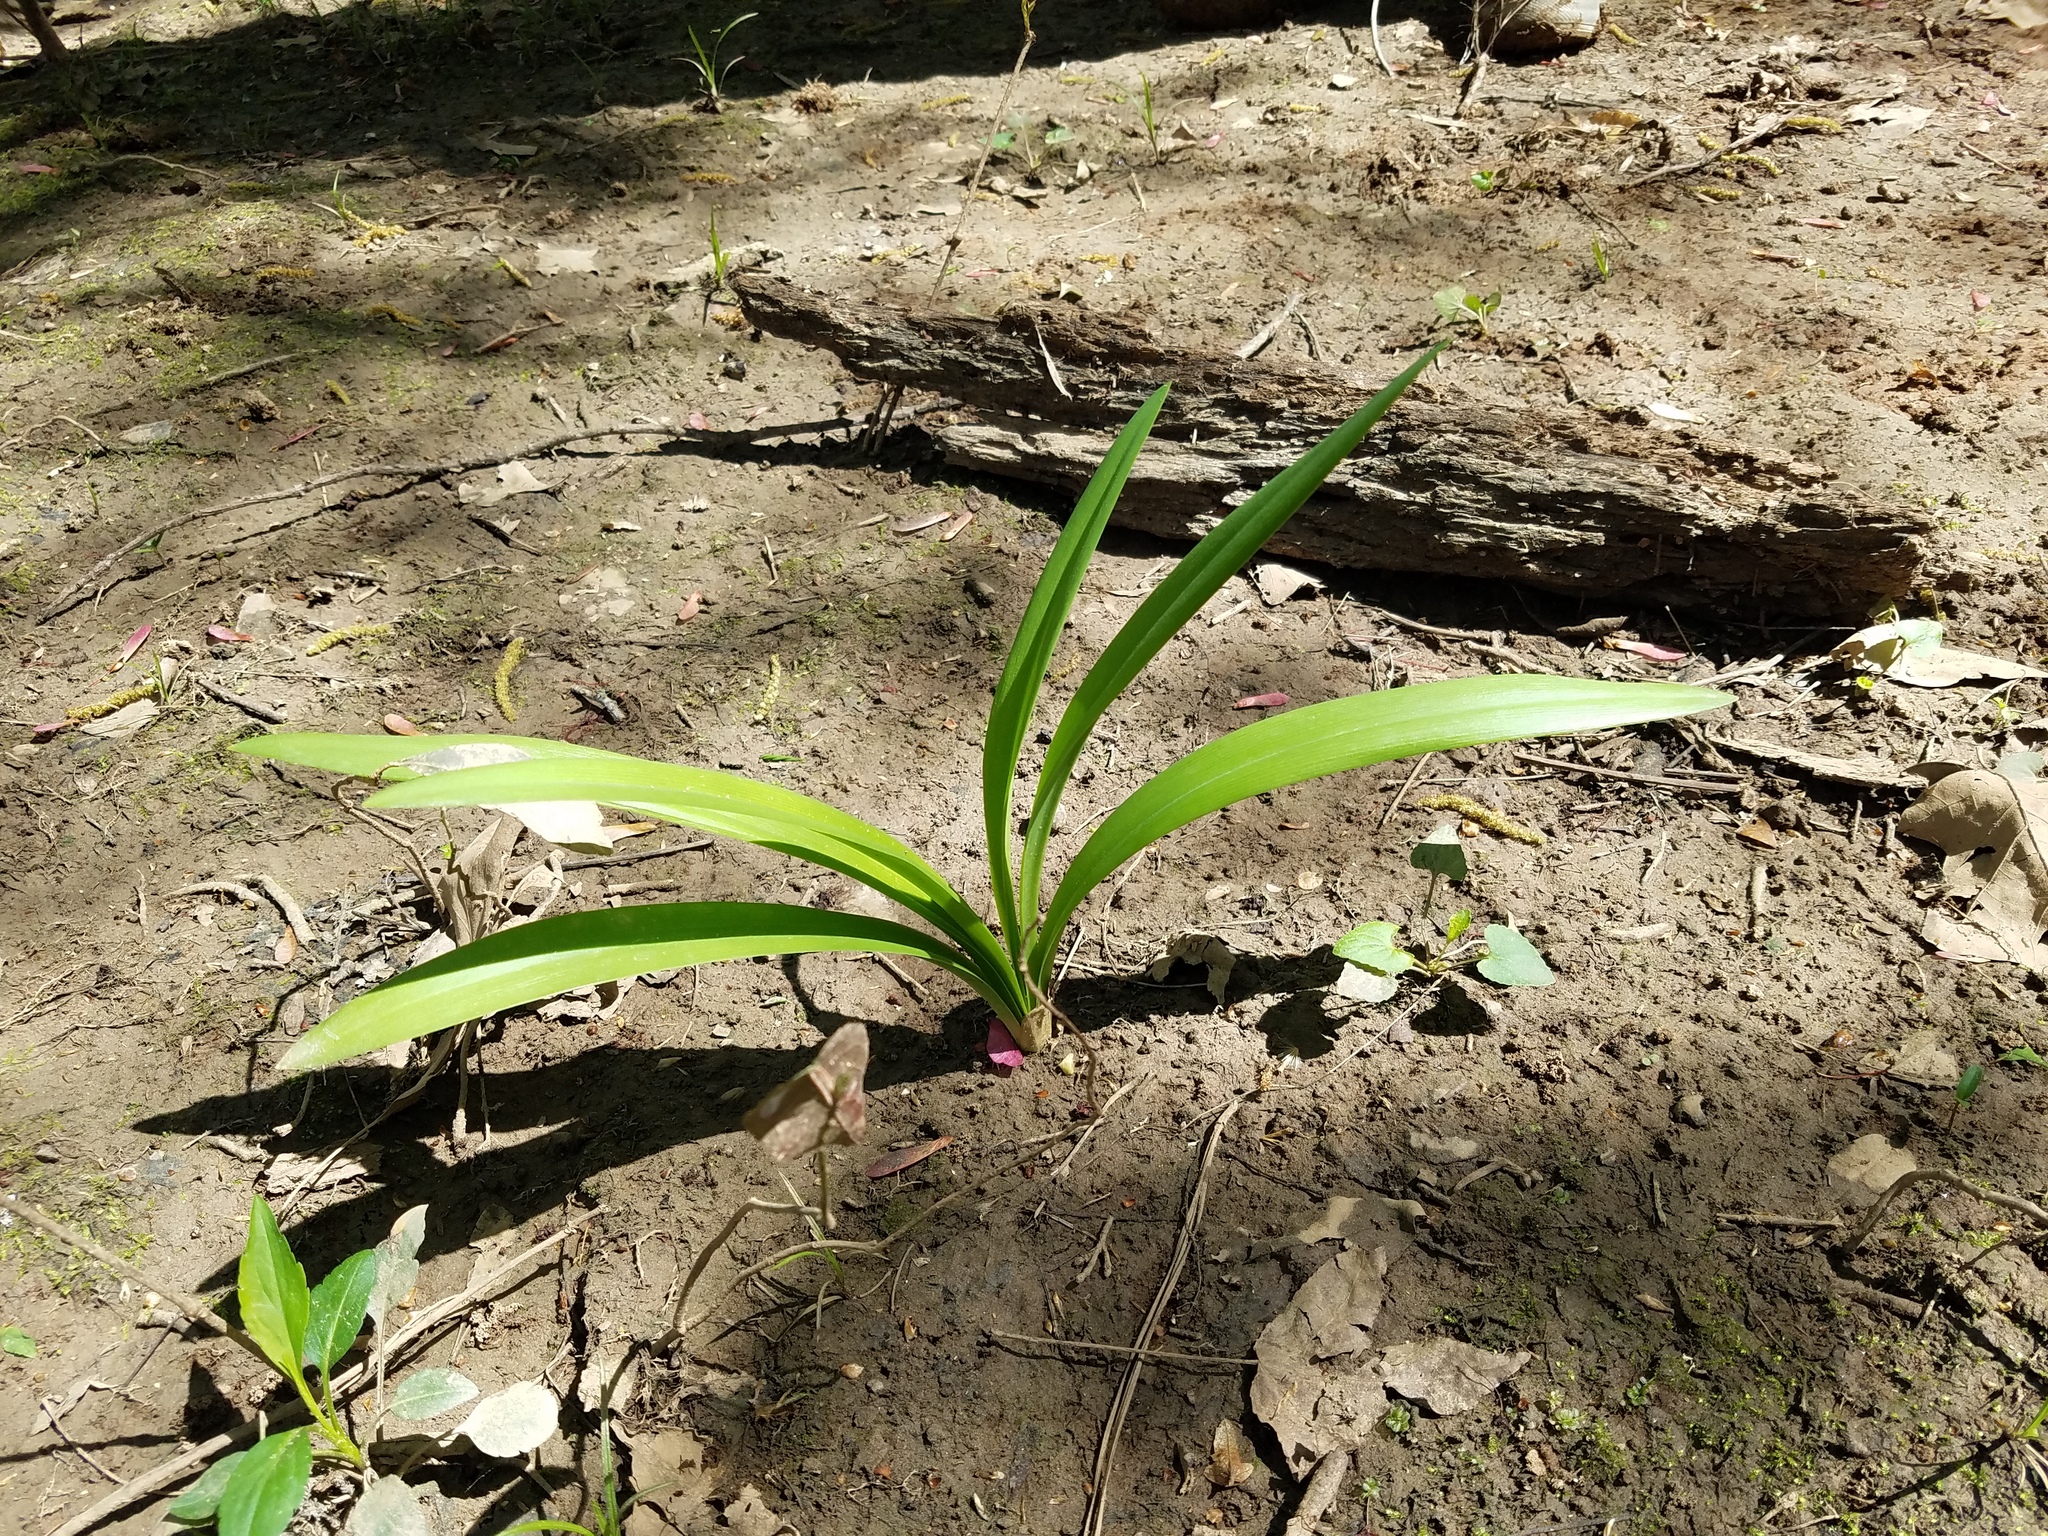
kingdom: Plantae
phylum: Tracheophyta
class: Liliopsida
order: Asparagales
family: Amaryllidaceae
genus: Hymenocallis
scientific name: Hymenocallis occidentalis
